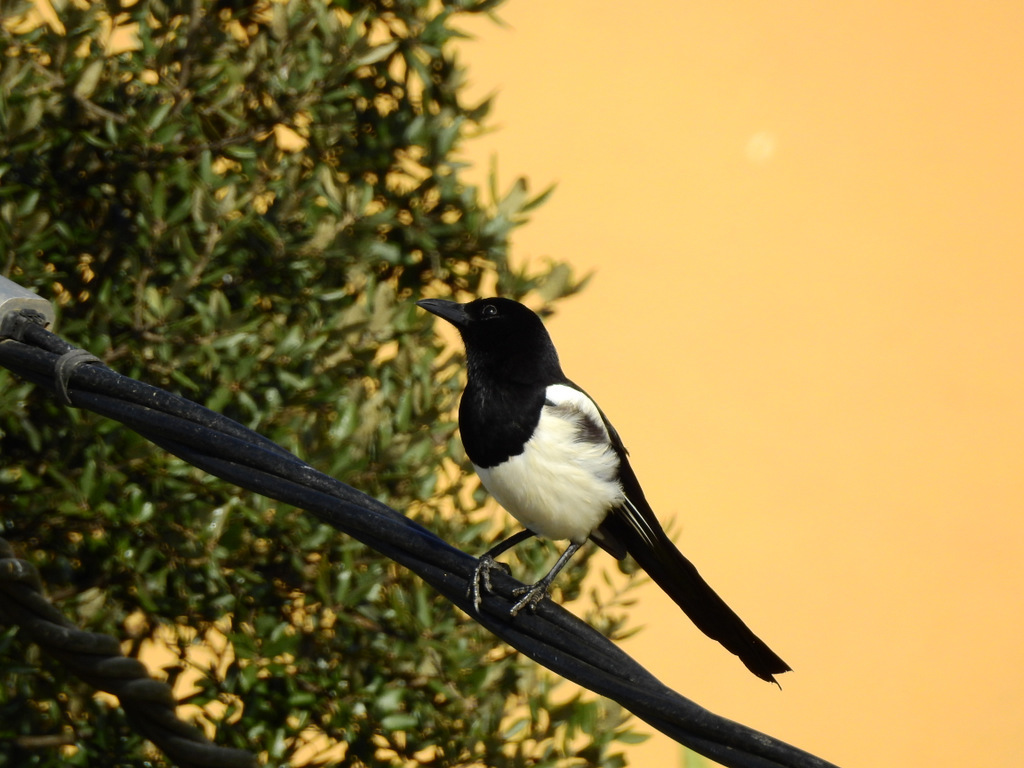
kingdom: Animalia
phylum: Chordata
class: Aves
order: Passeriformes
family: Corvidae
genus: Pica
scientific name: Pica pica
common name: Eurasian magpie
